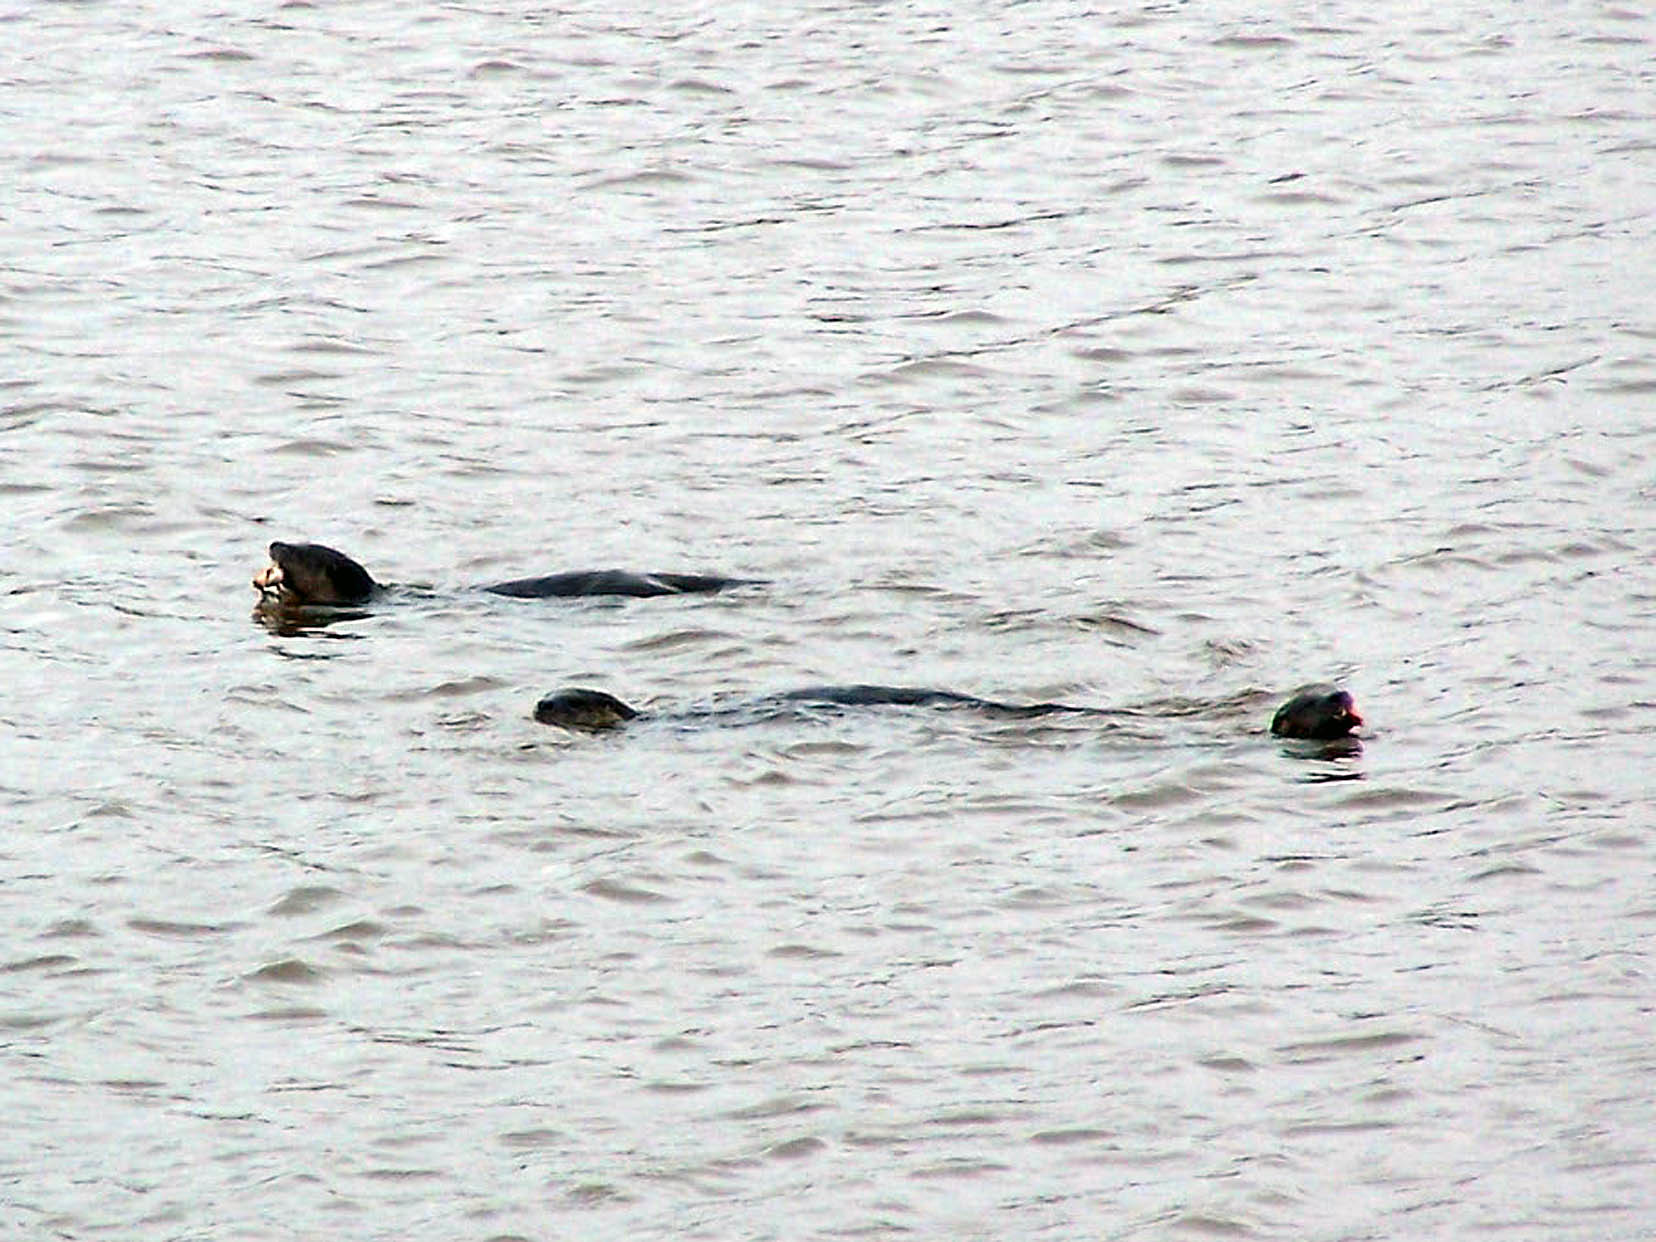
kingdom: Animalia
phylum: Chordata
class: Mammalia
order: Carnivora
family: Mustelidae
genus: Lontra
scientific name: Lontra canadensis
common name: North american river otter
